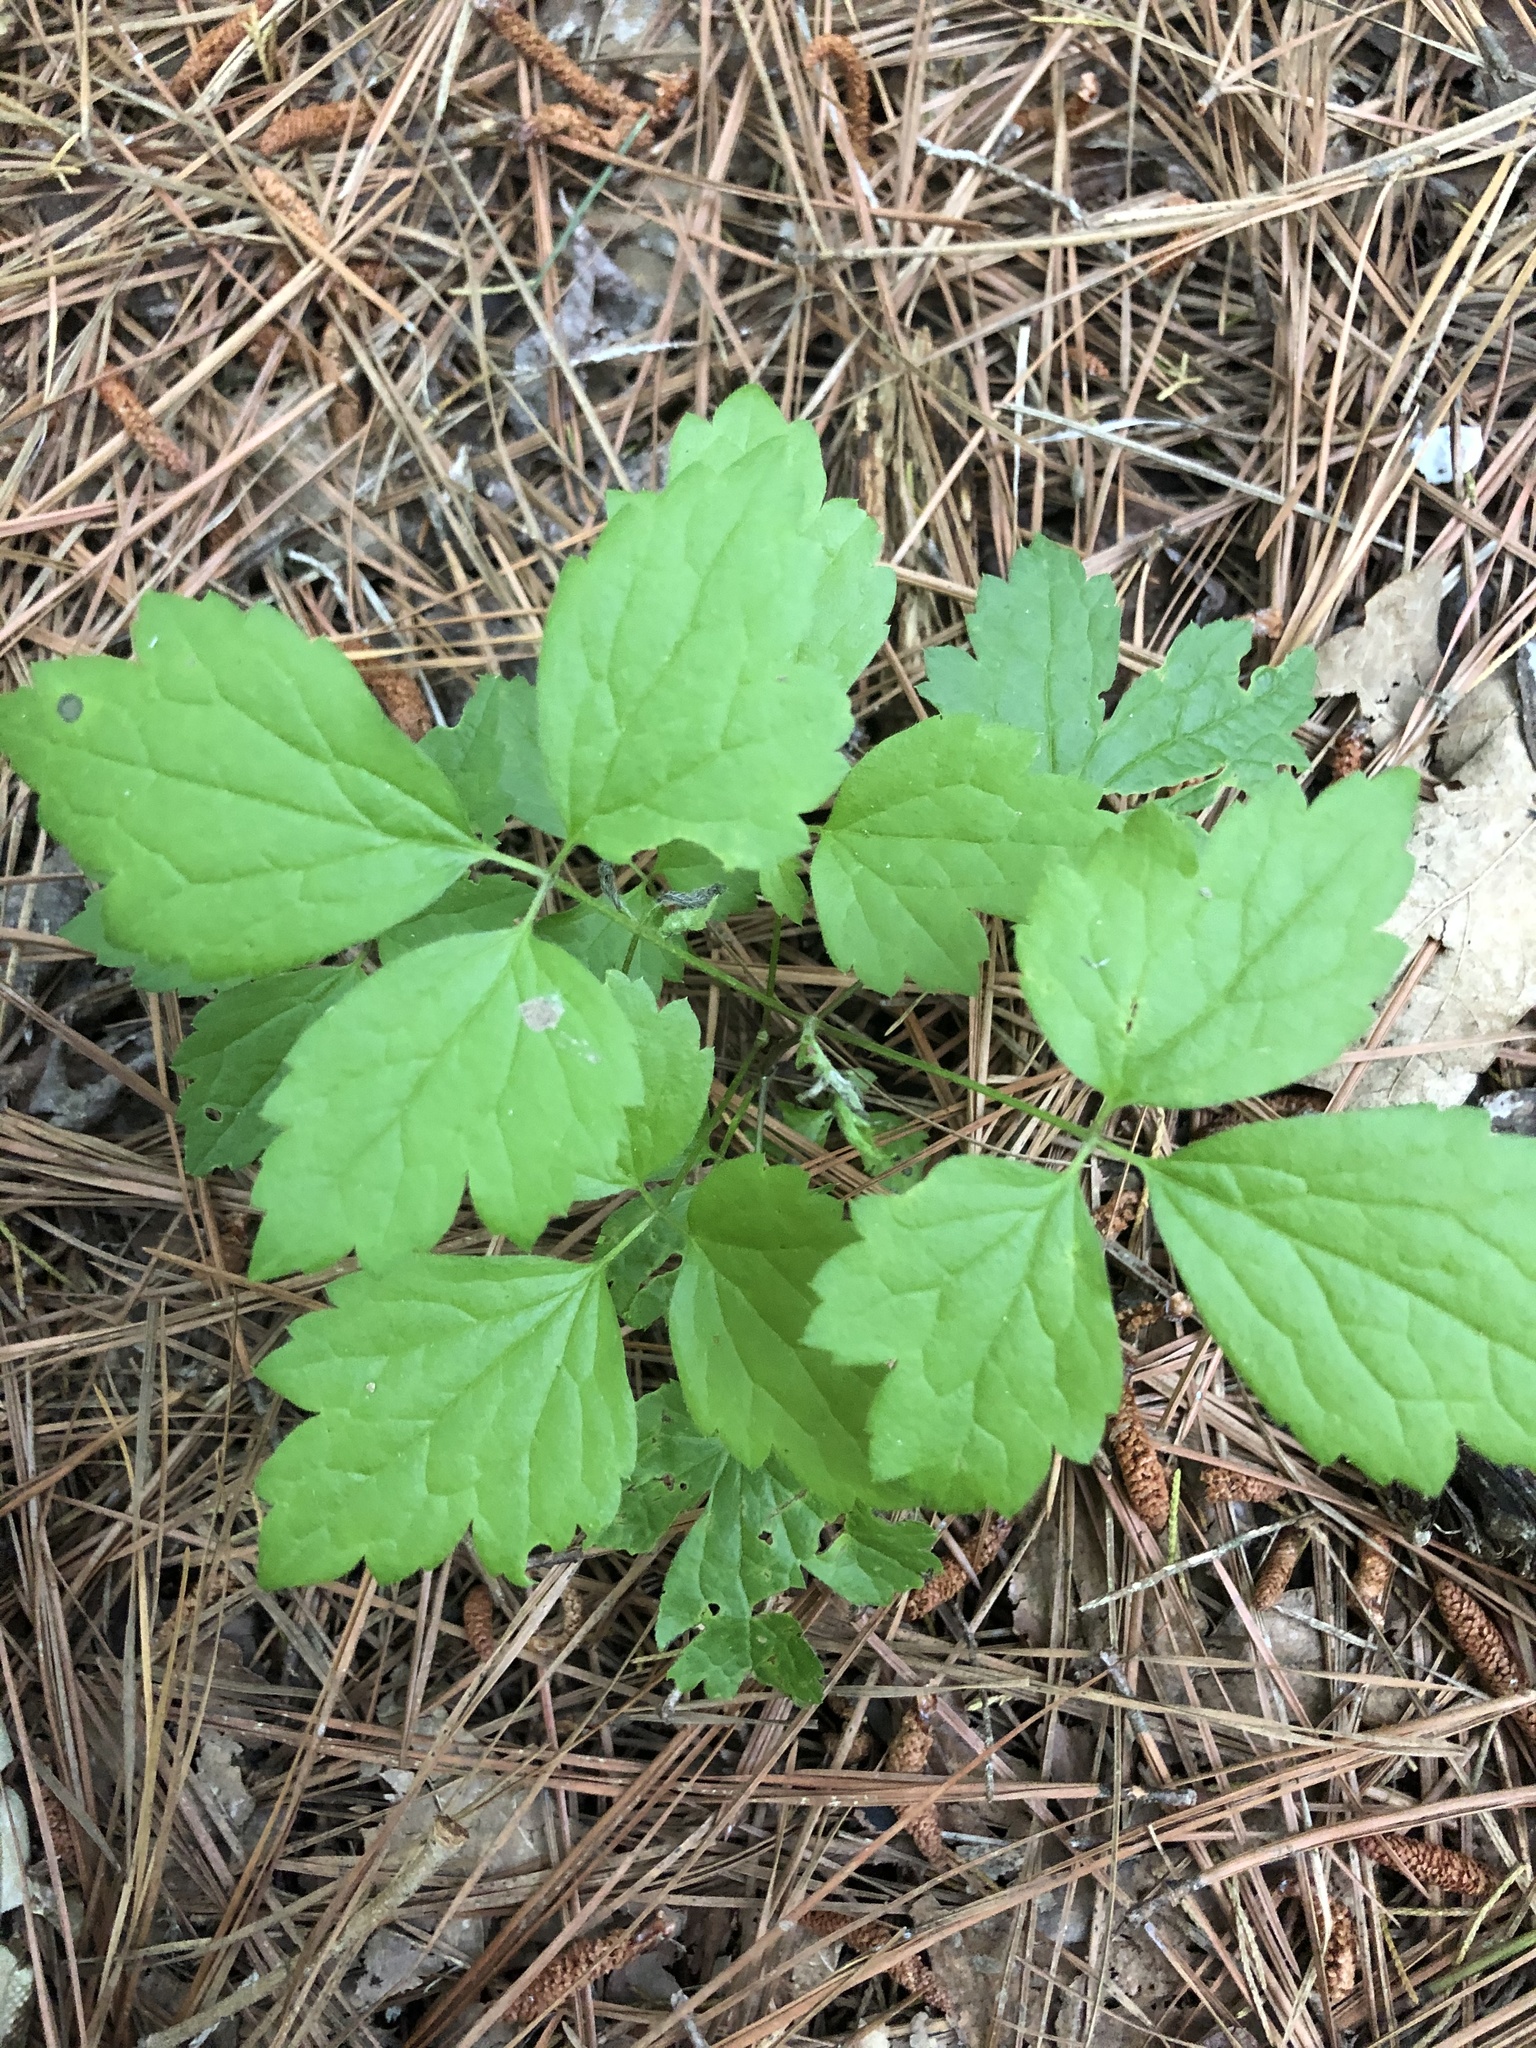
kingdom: Plantae
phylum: Tracheophyta
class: Magnoliopsida
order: Ranunculales
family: Ranunculaceae
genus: Clematis
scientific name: Clematis catesbyana
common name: Virgin's bower
